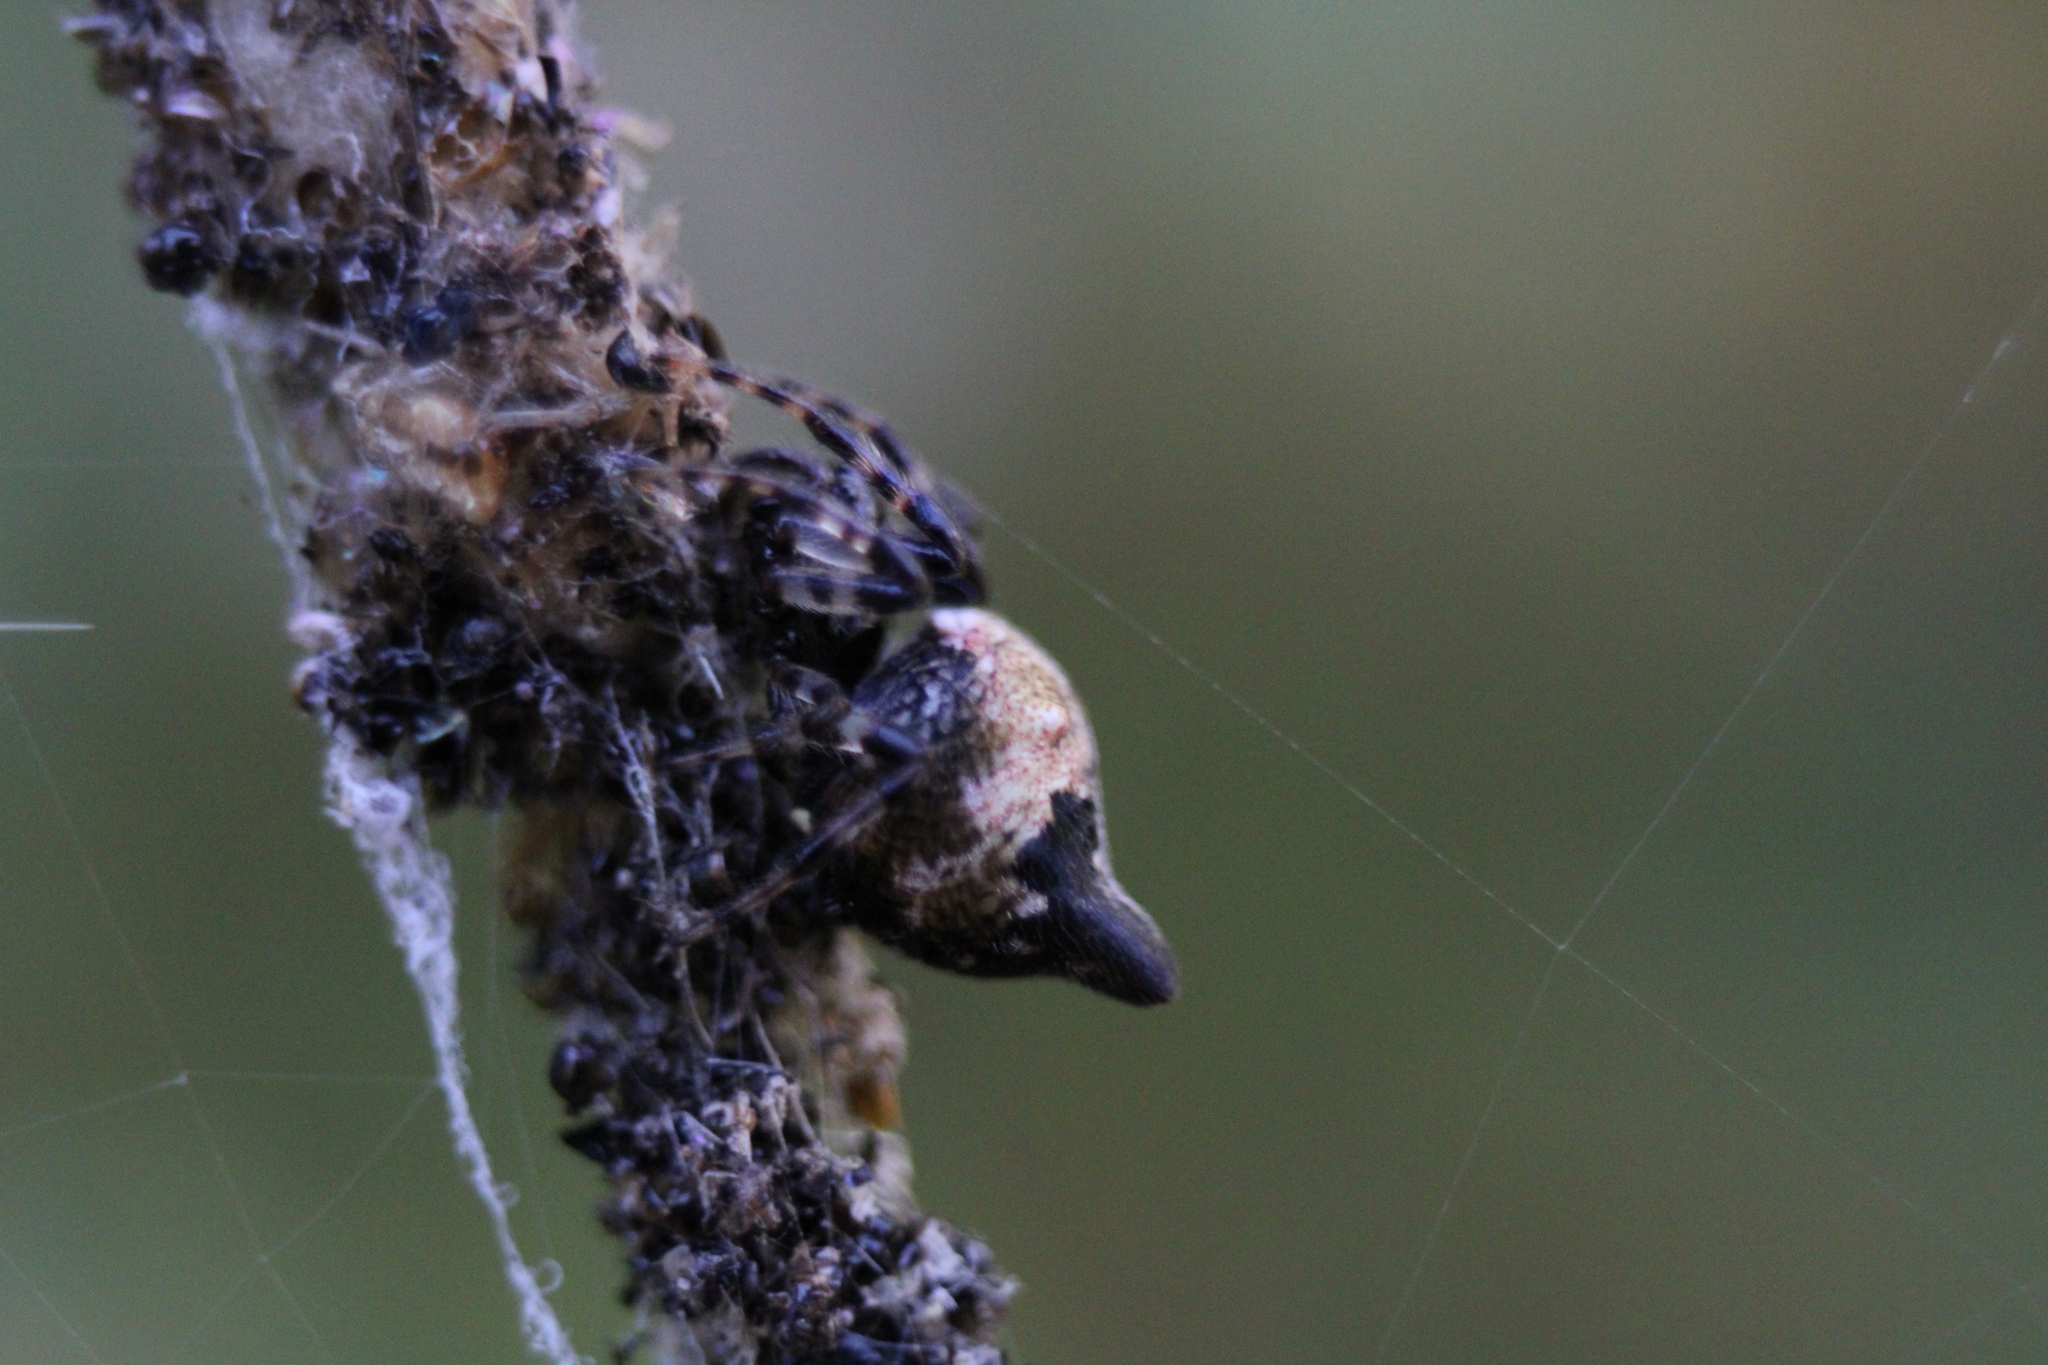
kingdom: Animalia
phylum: Arthropoda
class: Arachnida
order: Araneae
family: Araneidae
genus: Cyclosa
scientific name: Cyclosa turbinata
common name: Orb weavers
